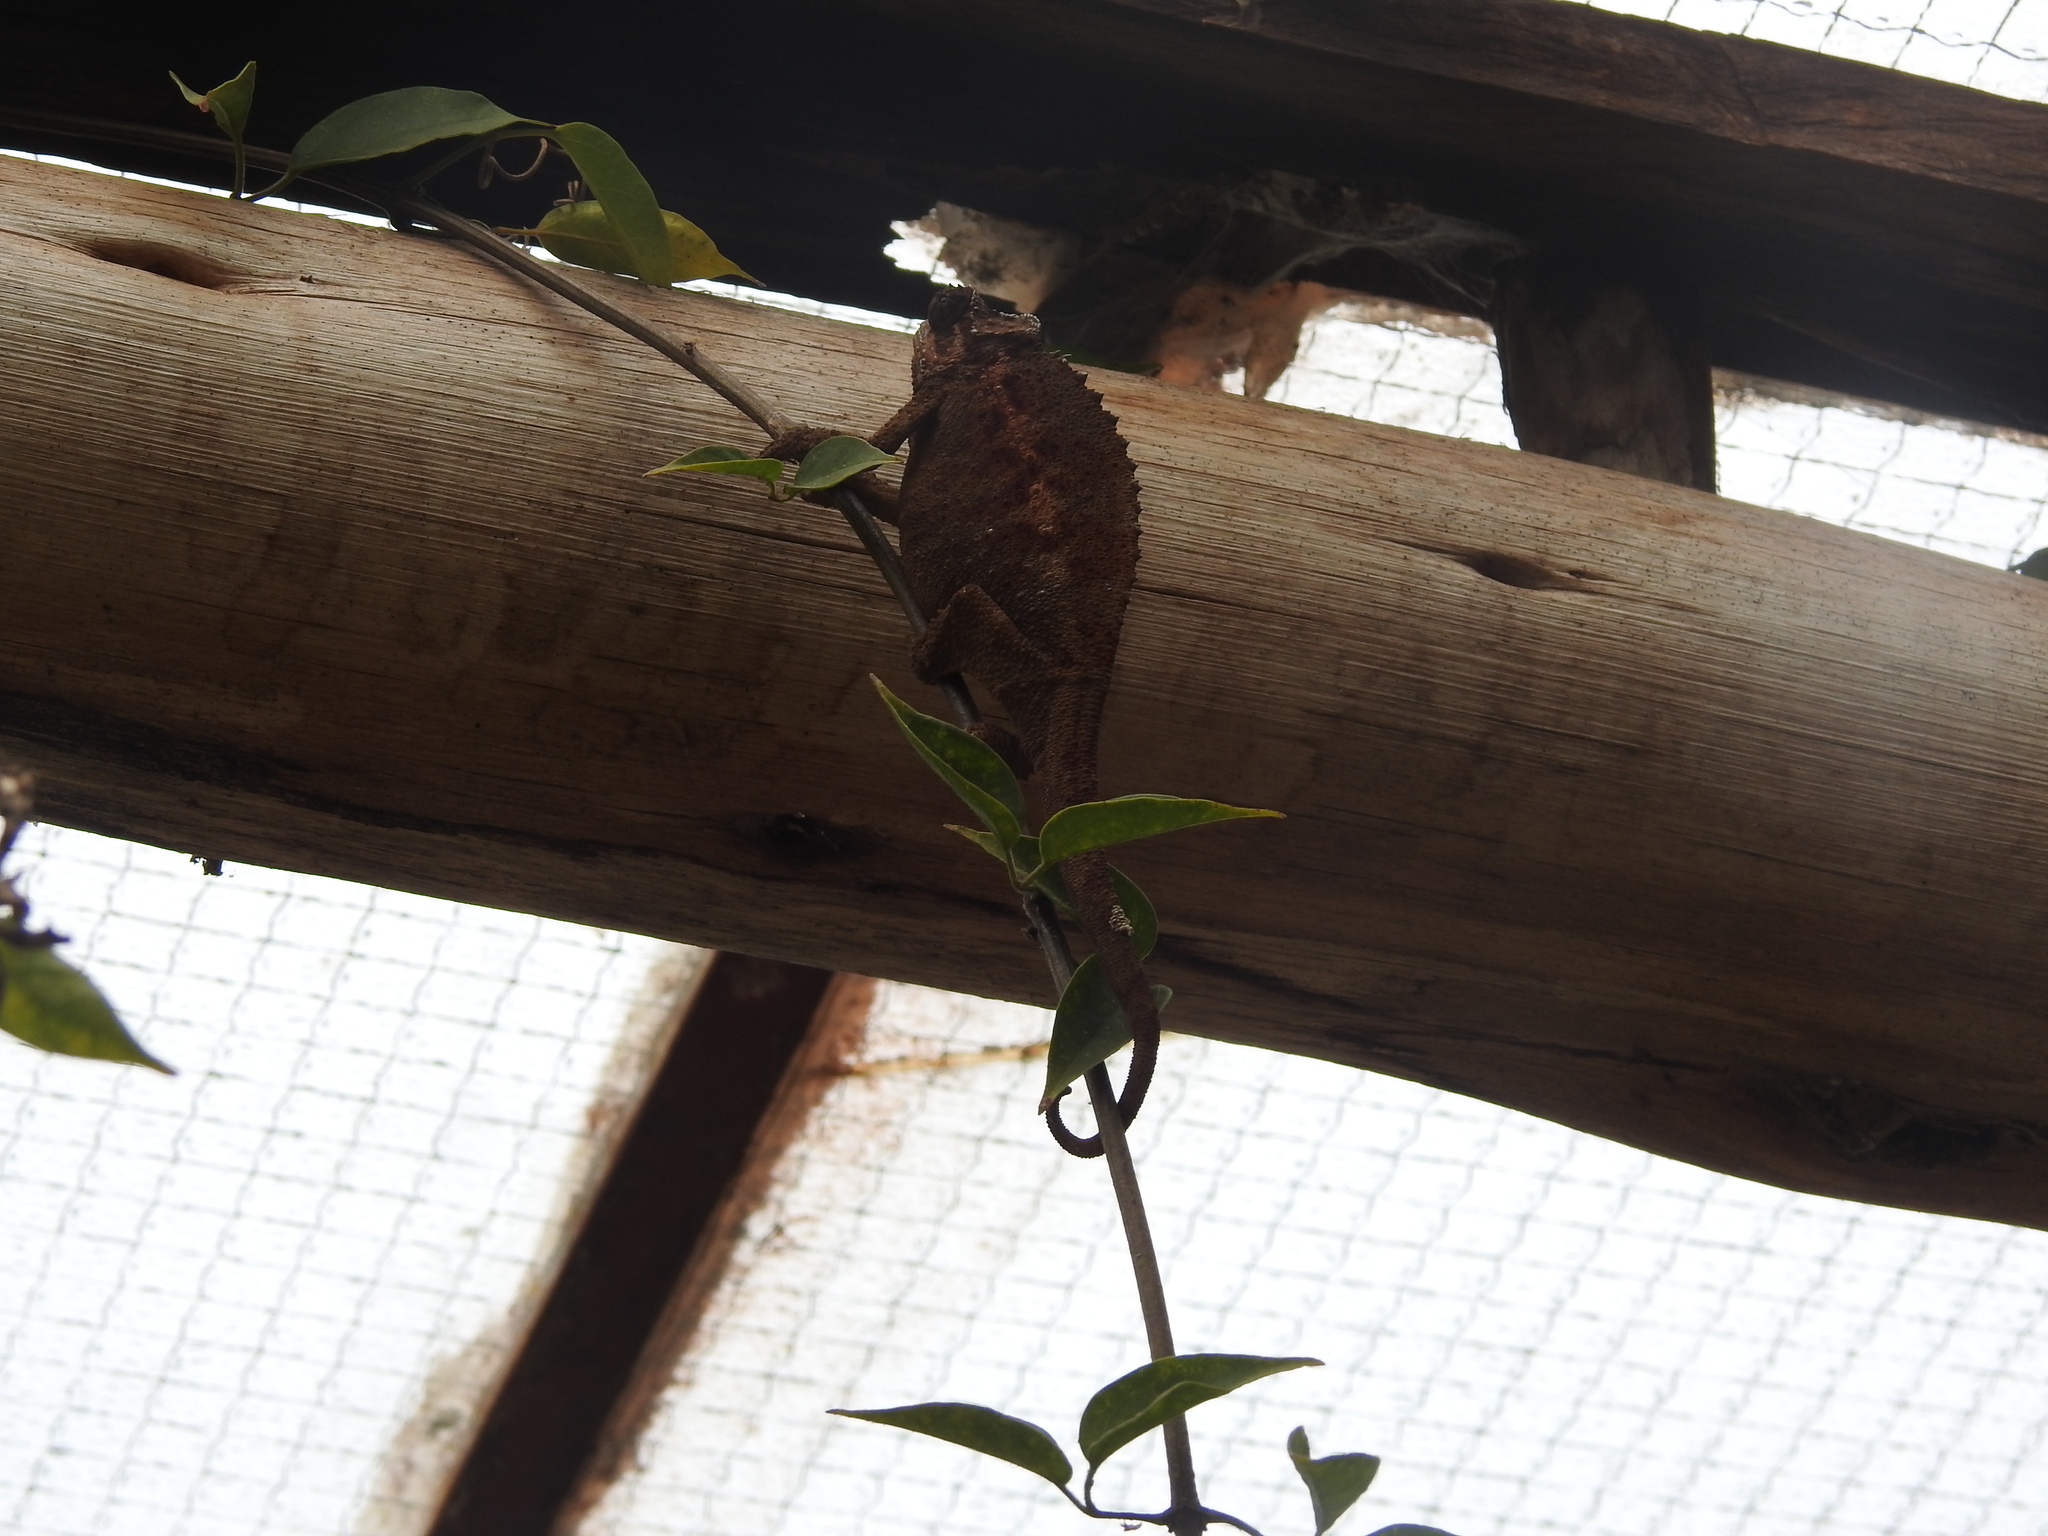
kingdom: Animalia
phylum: Chordata
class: Squamata
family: Chamaeleonidae
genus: Trioceros
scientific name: Trioceros jacksonii
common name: Jackson's chameleon
